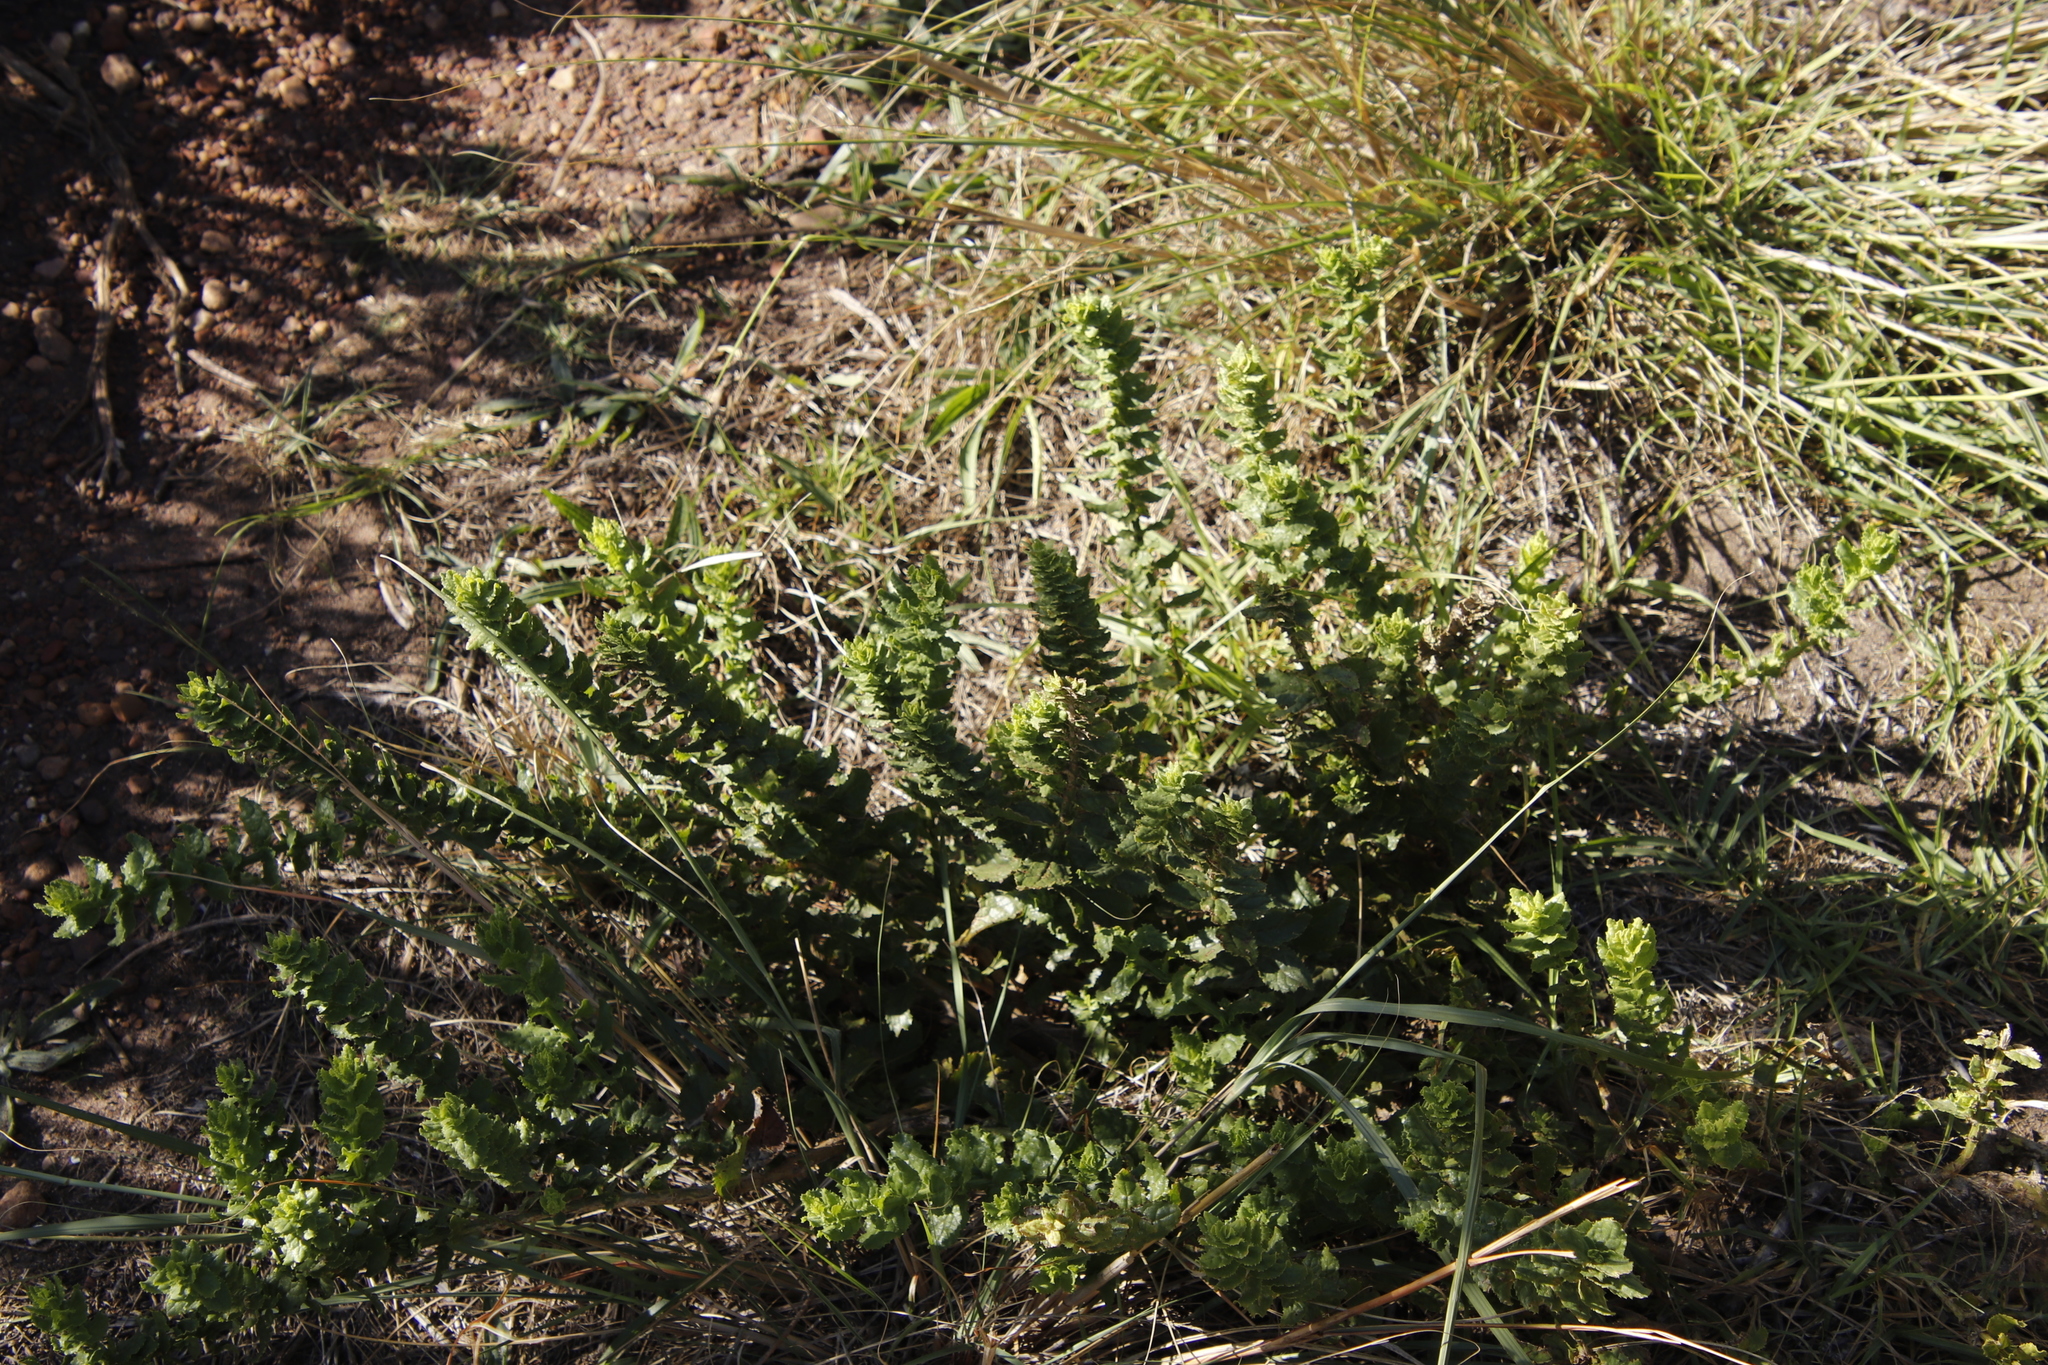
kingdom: Plantae
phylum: Tracheophyta
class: Magnoliopsida
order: Lamiales
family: Scrophulariaceae
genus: Oftia
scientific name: Oftia africana
